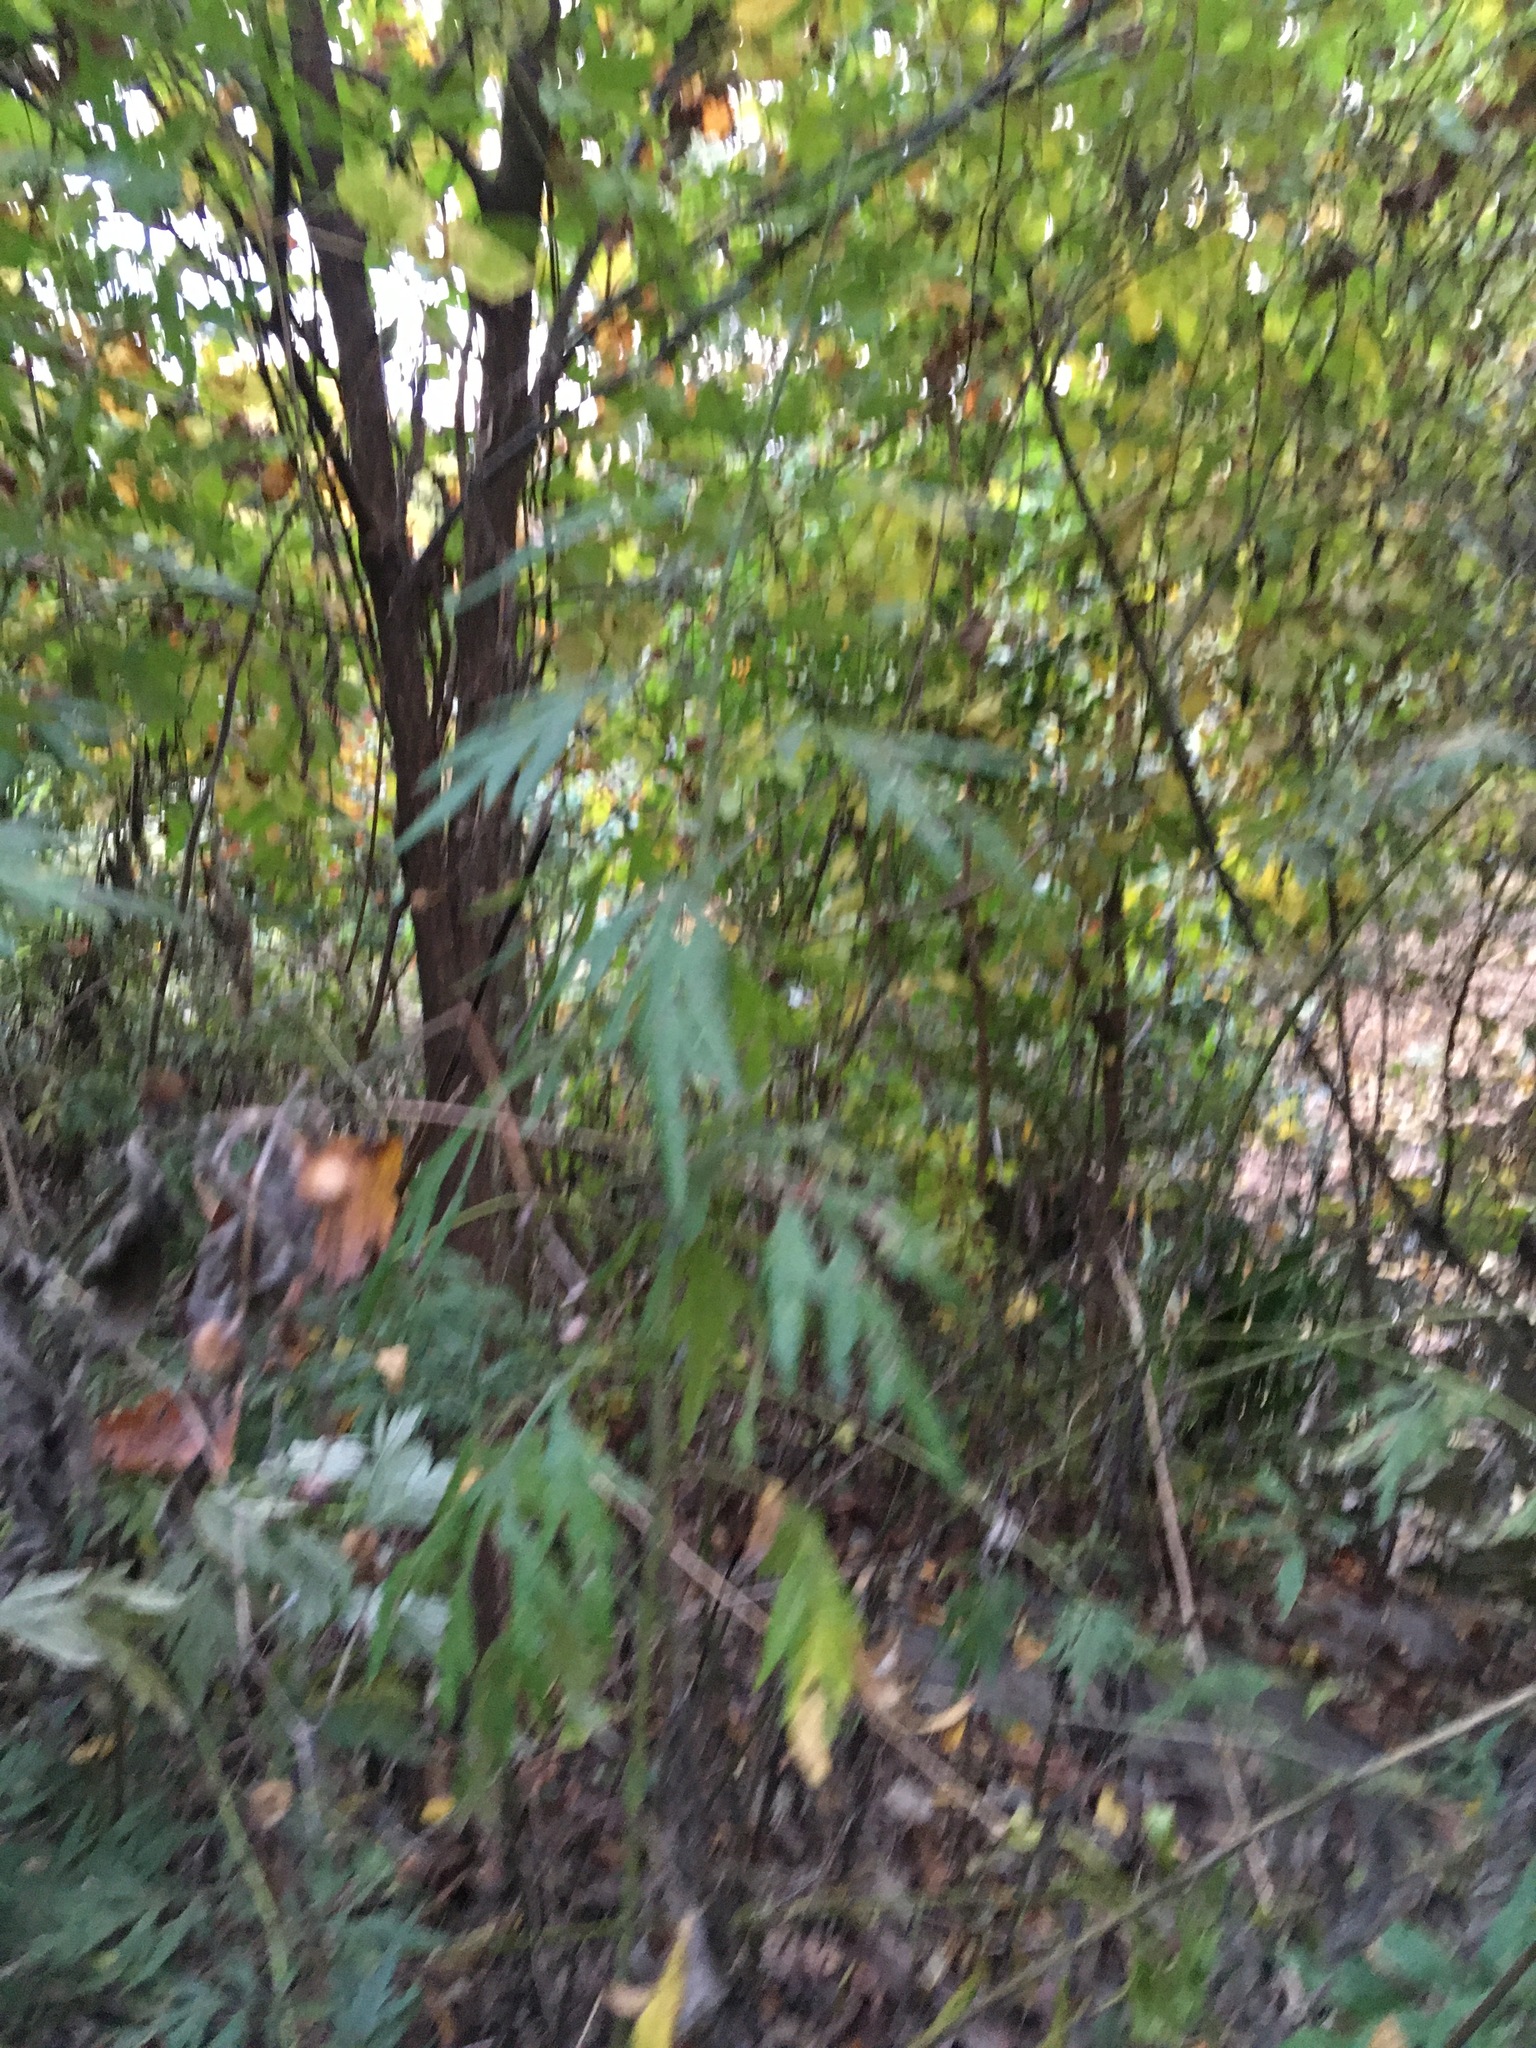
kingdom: Plantae
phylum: Tracheophyta
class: Magnoliopsida
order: Asterales
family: Asteraceae
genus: Artemisia
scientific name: Artemisia vulgaris
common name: Mugwort
